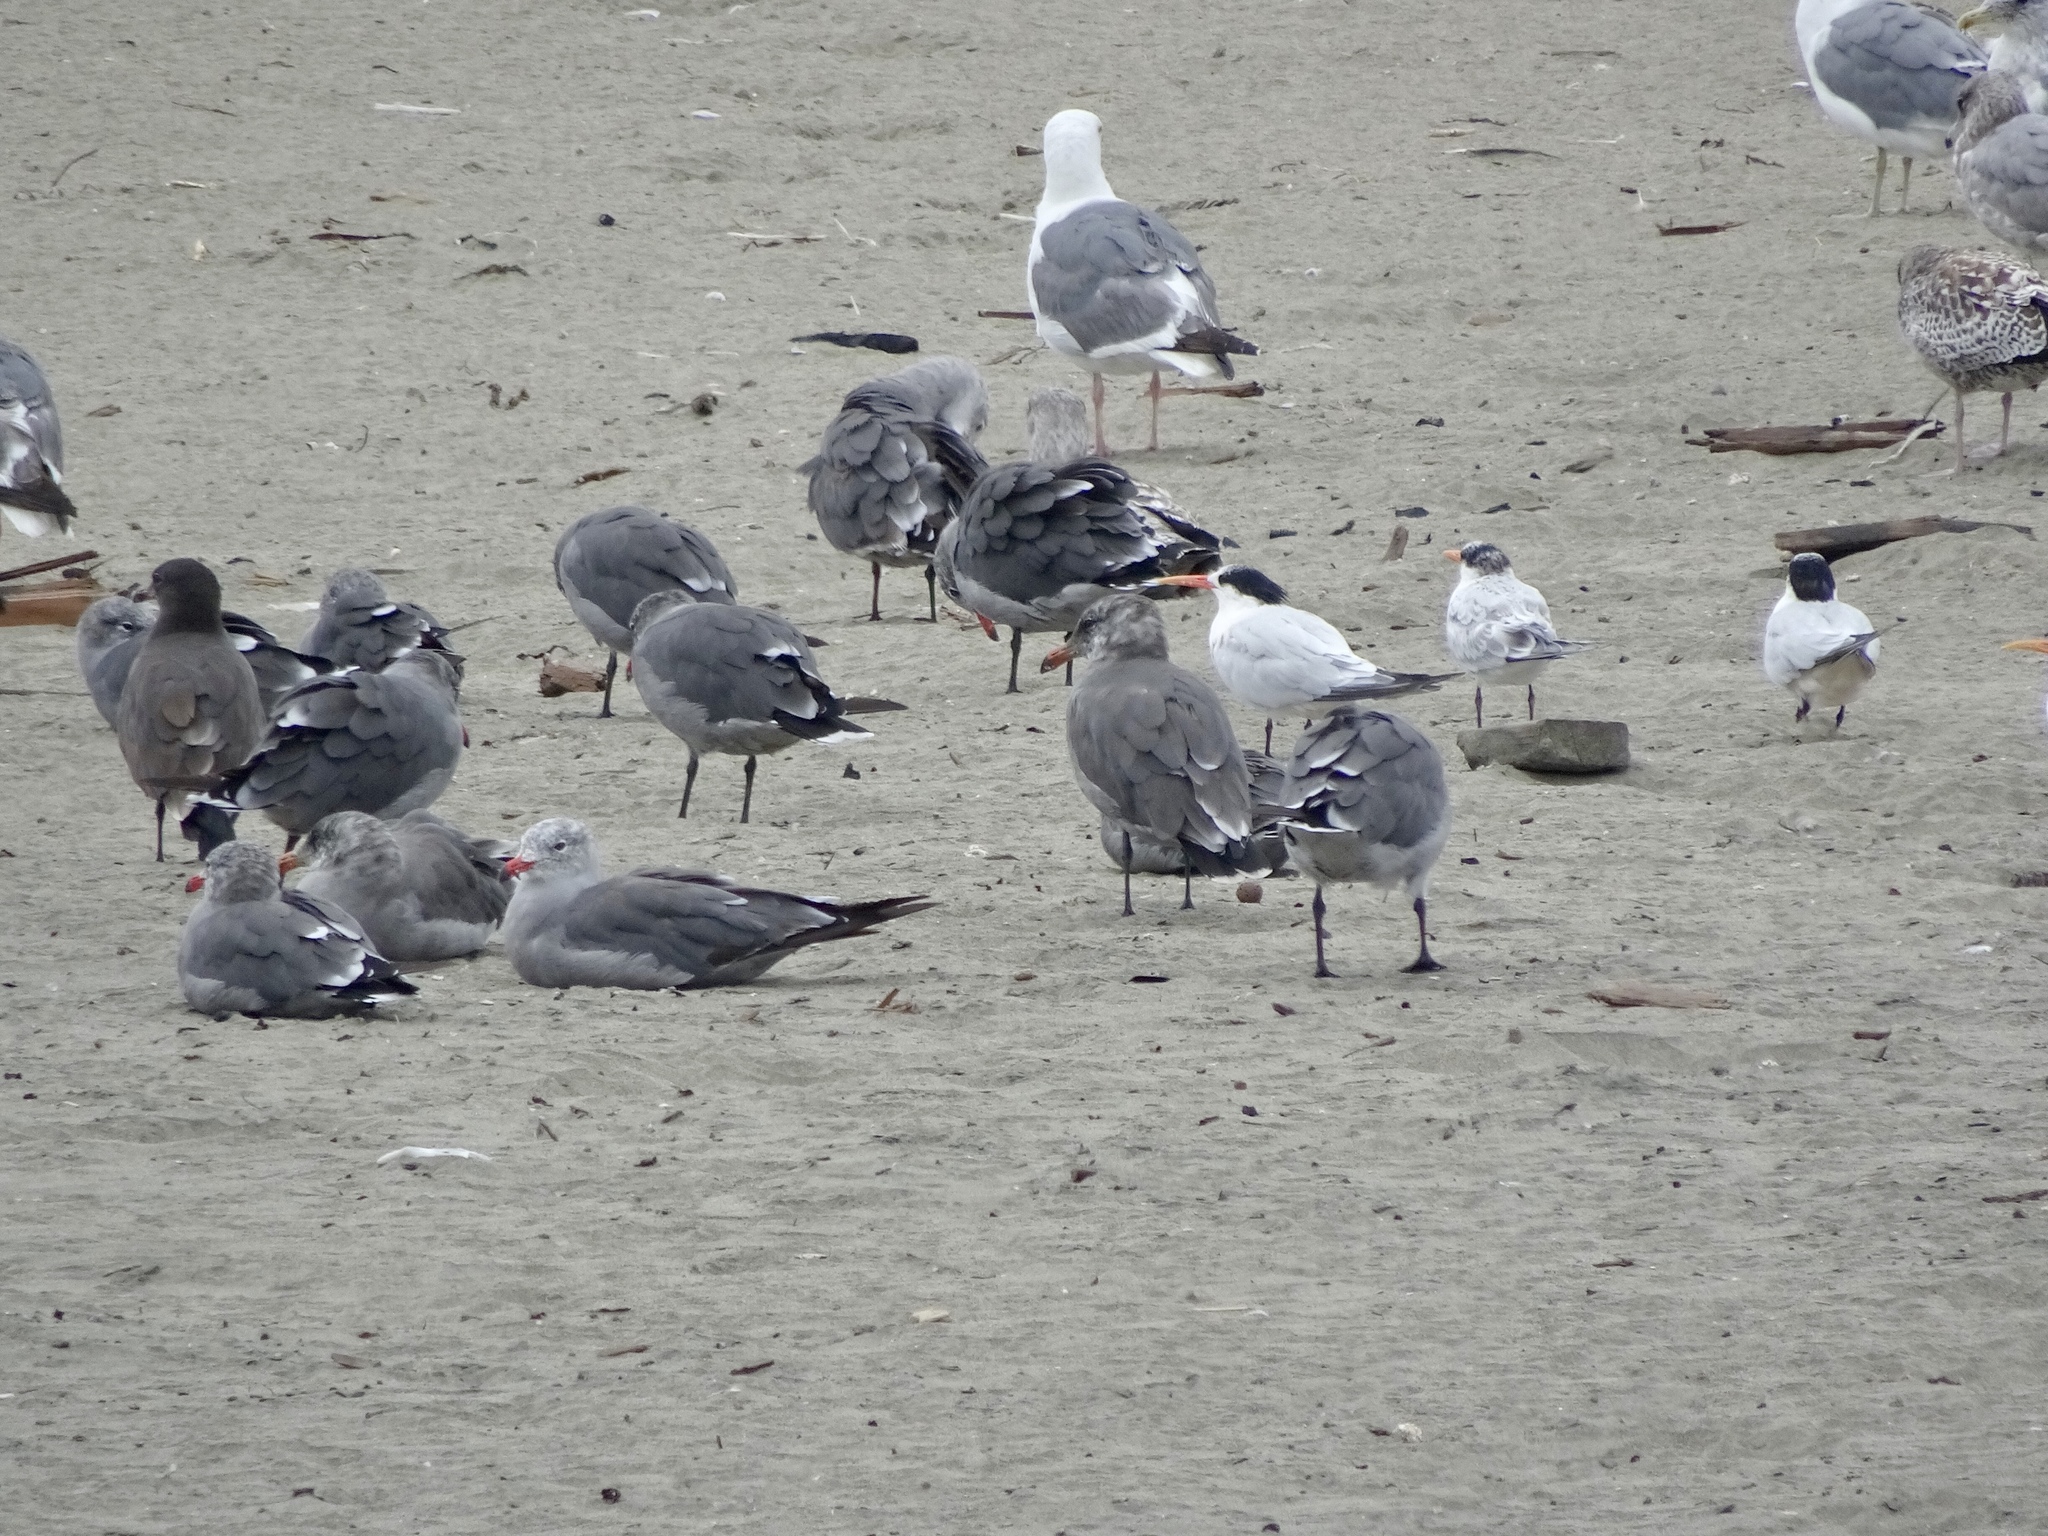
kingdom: Animalia
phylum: Chordata
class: Aves
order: Charadriiformes
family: Laridae
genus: Larus
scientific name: Larus heermanni
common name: Heermann's gull
